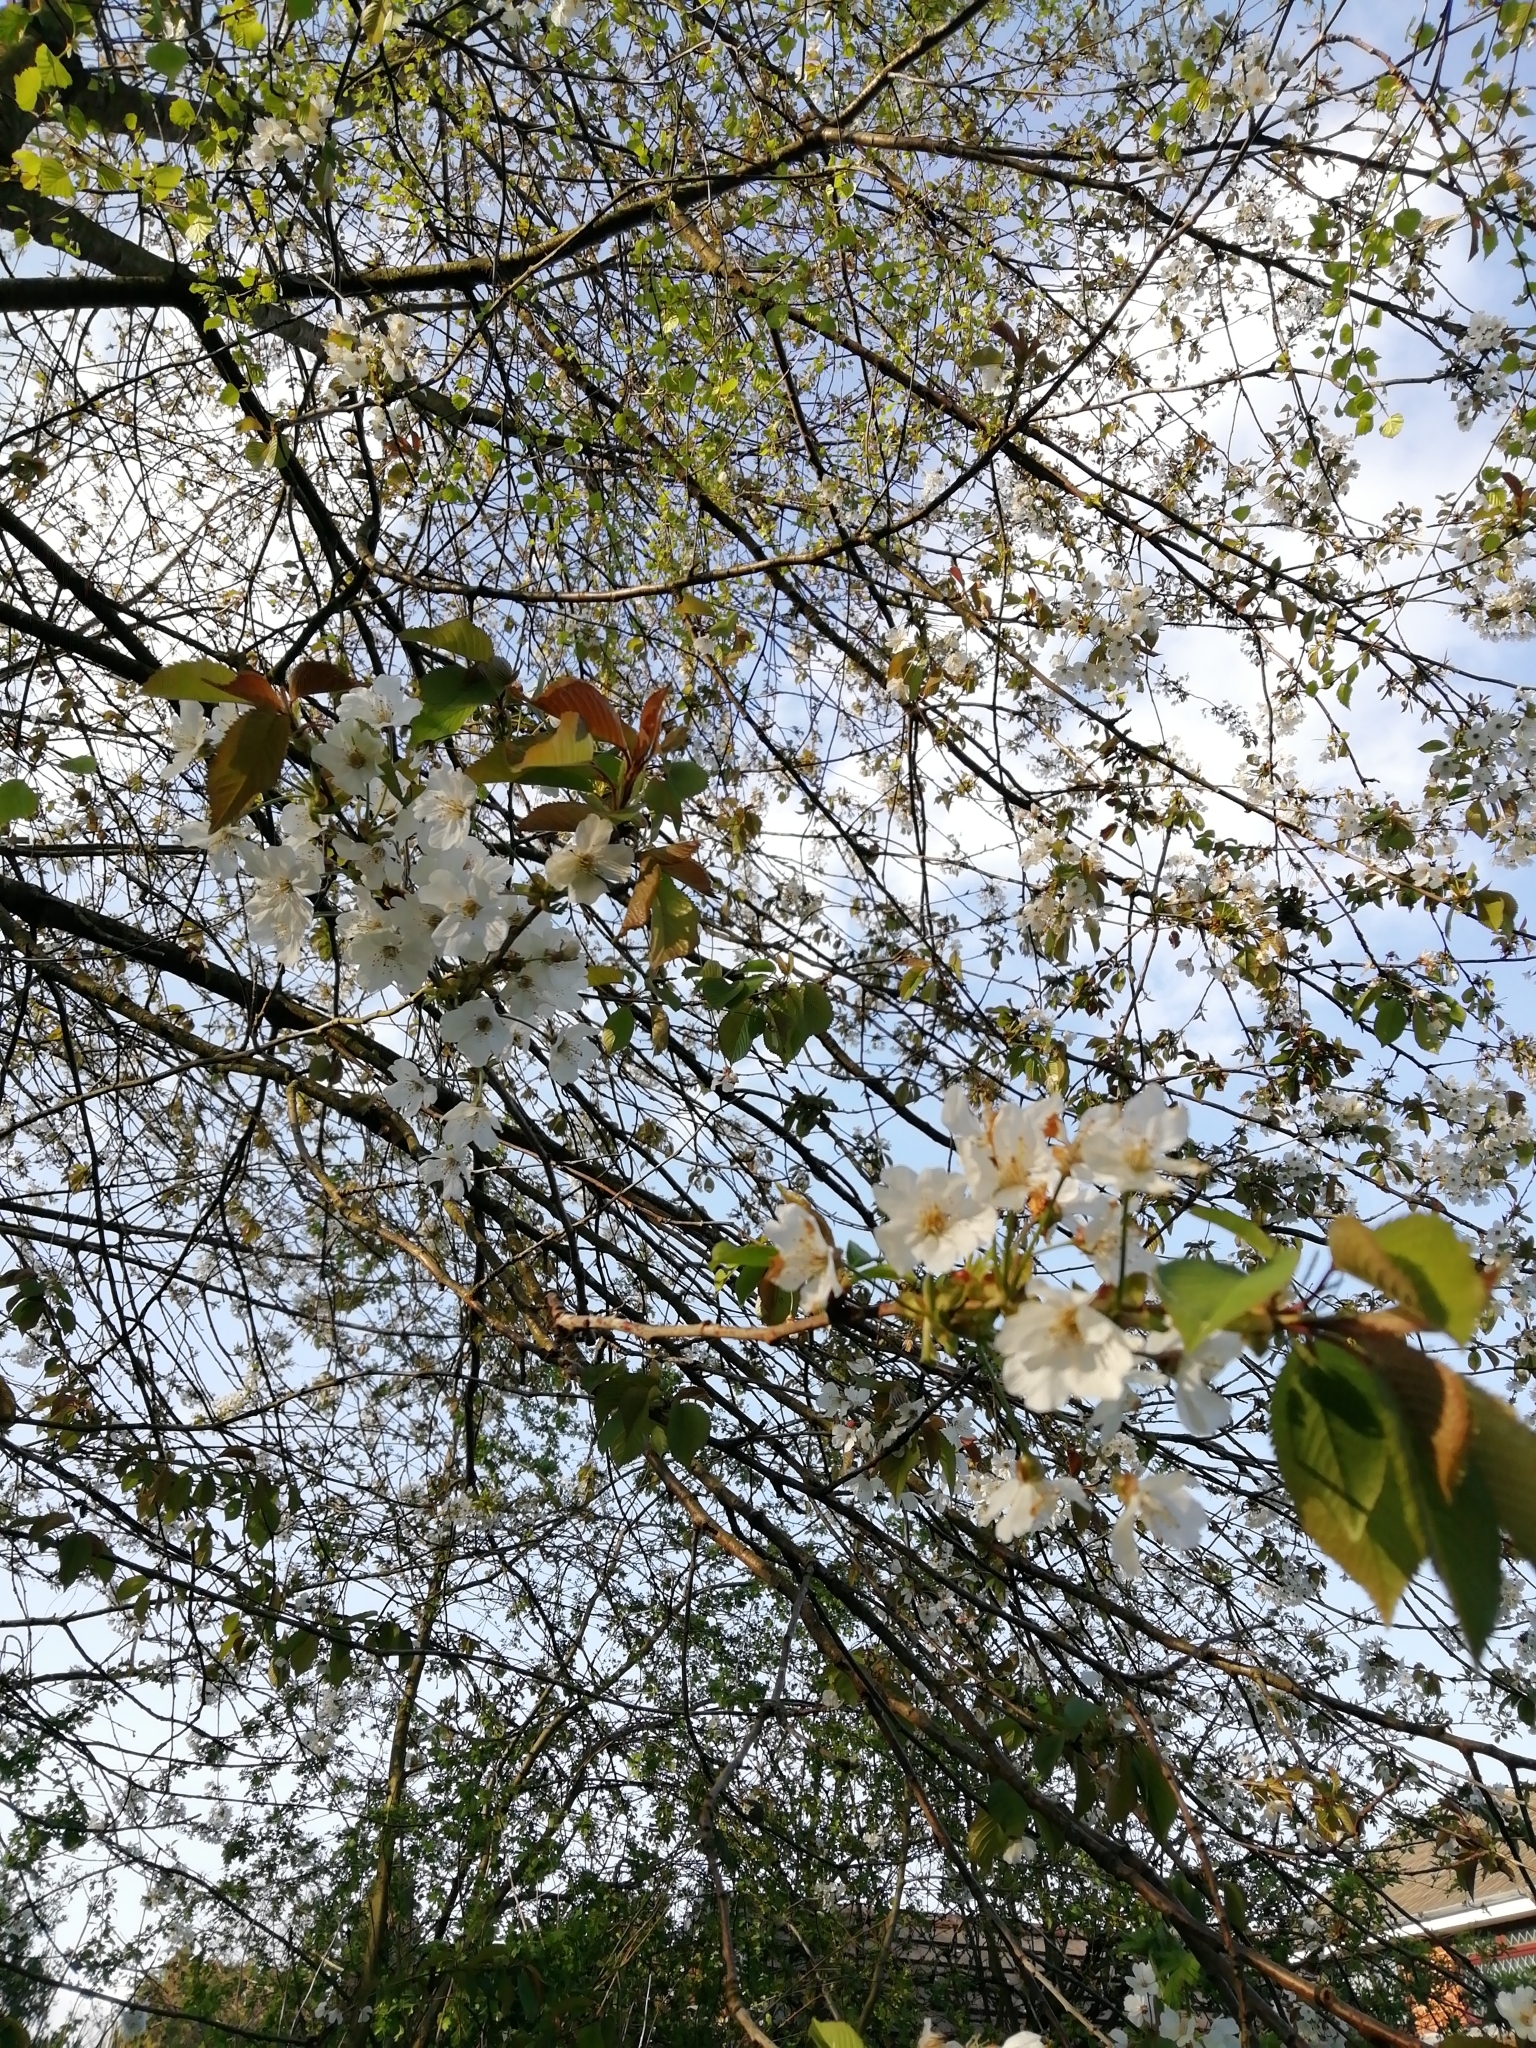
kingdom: Plantae
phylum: Tracheophyta
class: Magnoliopsida
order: Rosales
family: Rosaceae
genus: Prunus
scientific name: Prunus avium
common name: Sweet cherry
